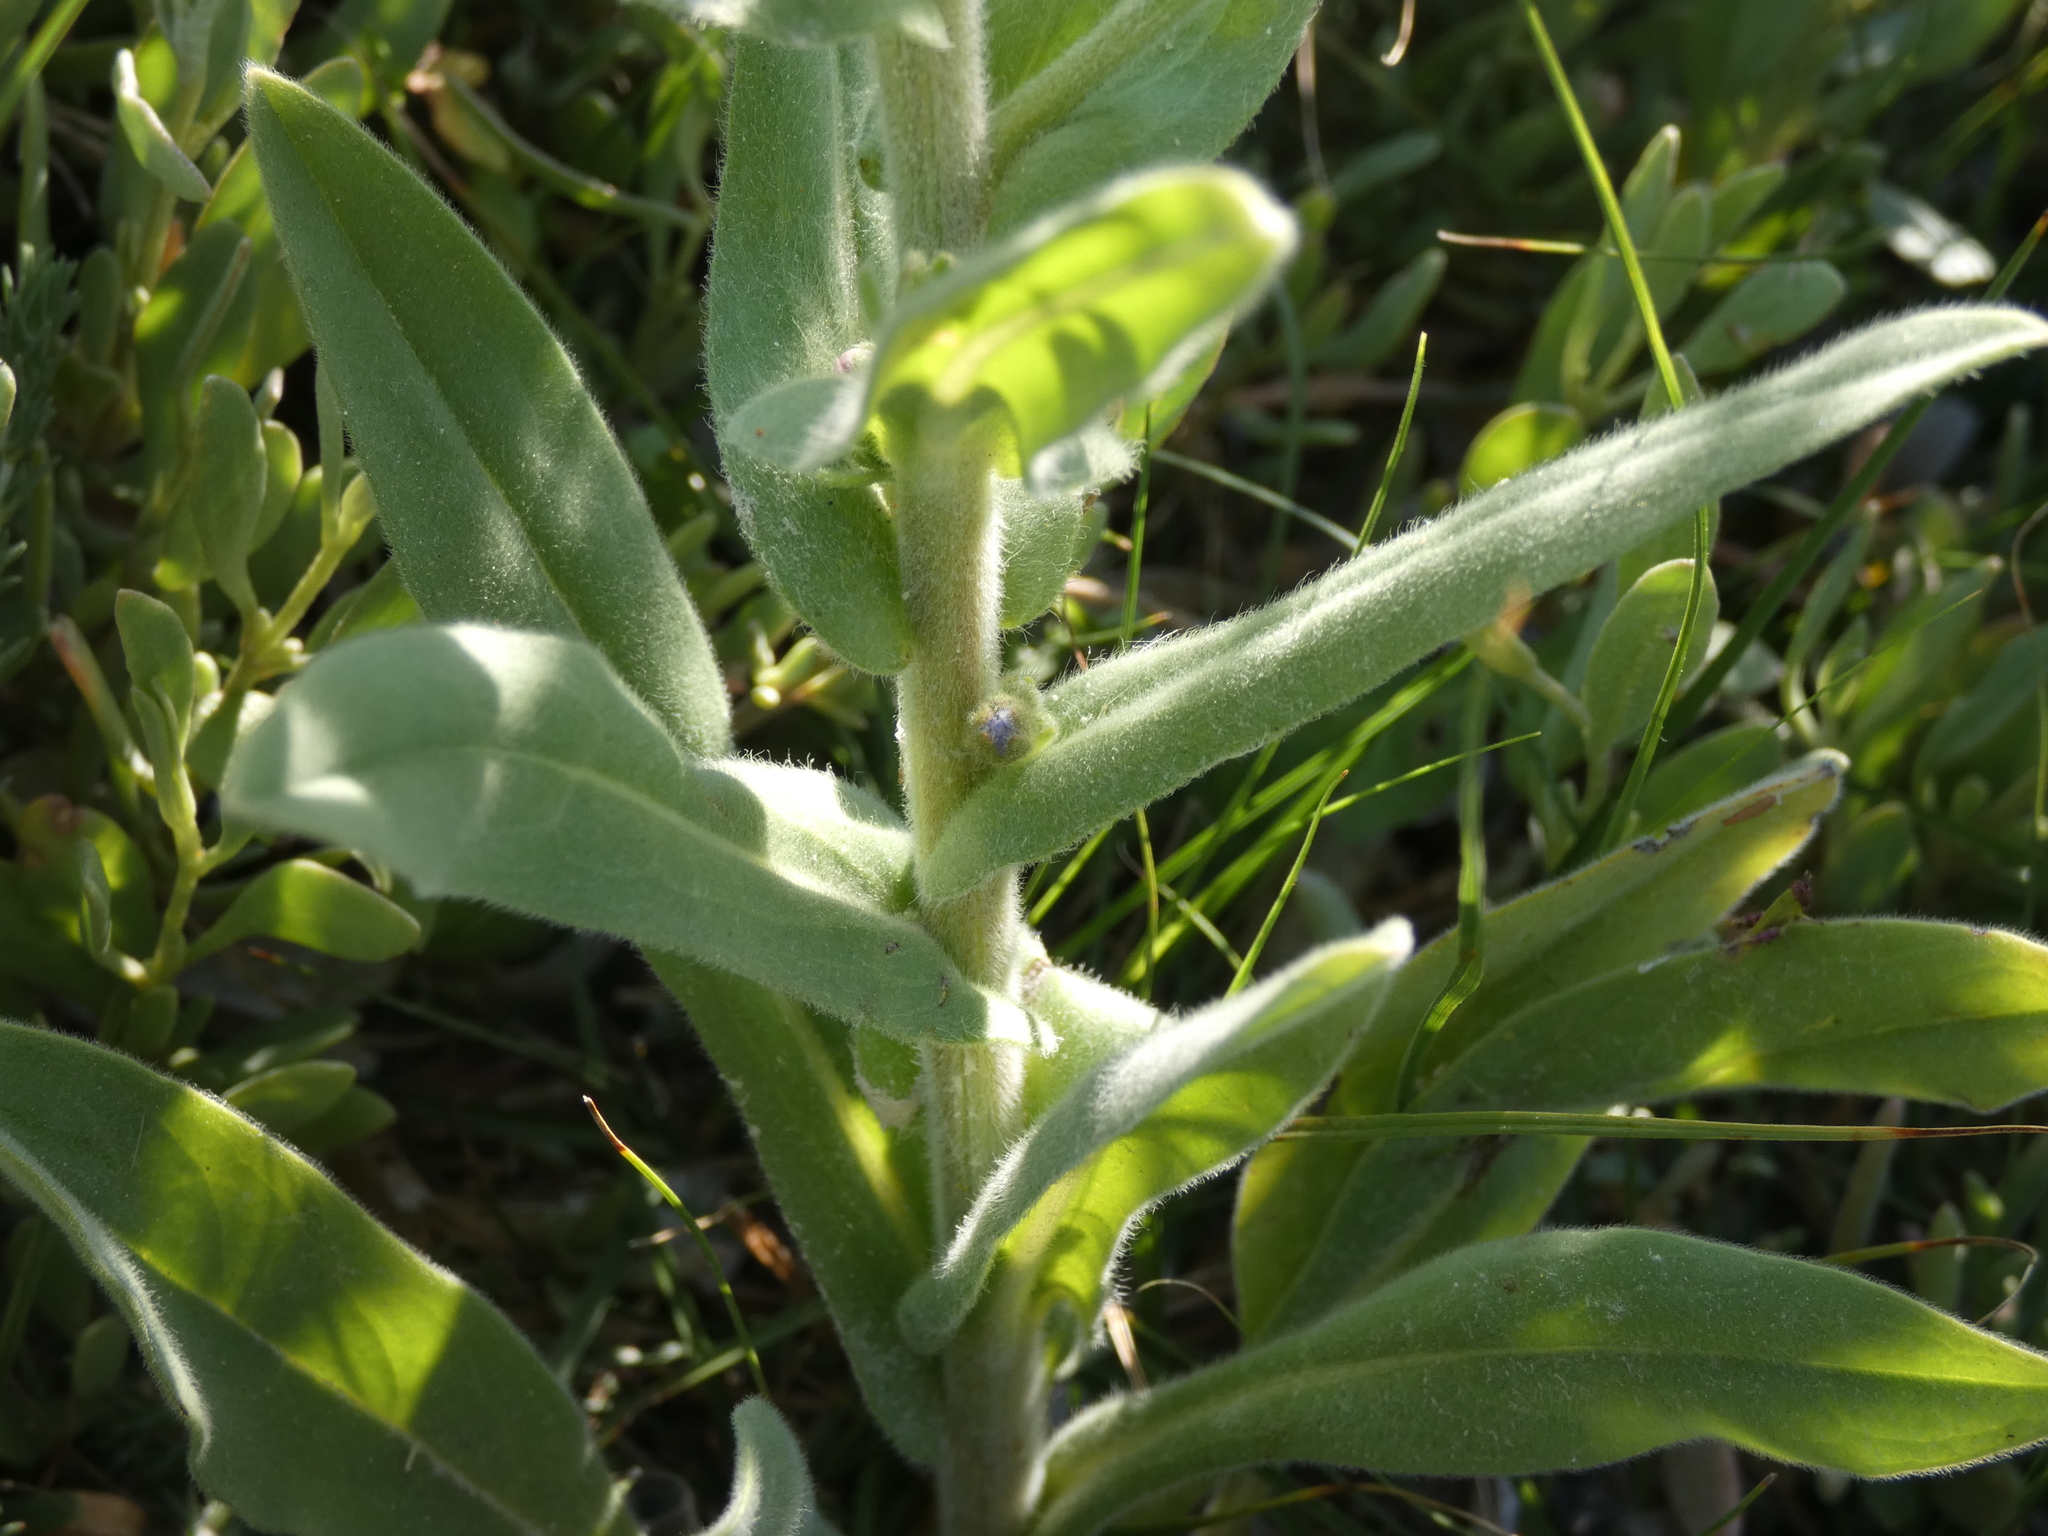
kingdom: Plantae
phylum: Tracheophyta
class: Magnoliopsida
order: Boraginales
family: Boraginaceae
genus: Cynoglossum
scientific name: Cynoglossum creticum
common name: Blue hound's tongue
